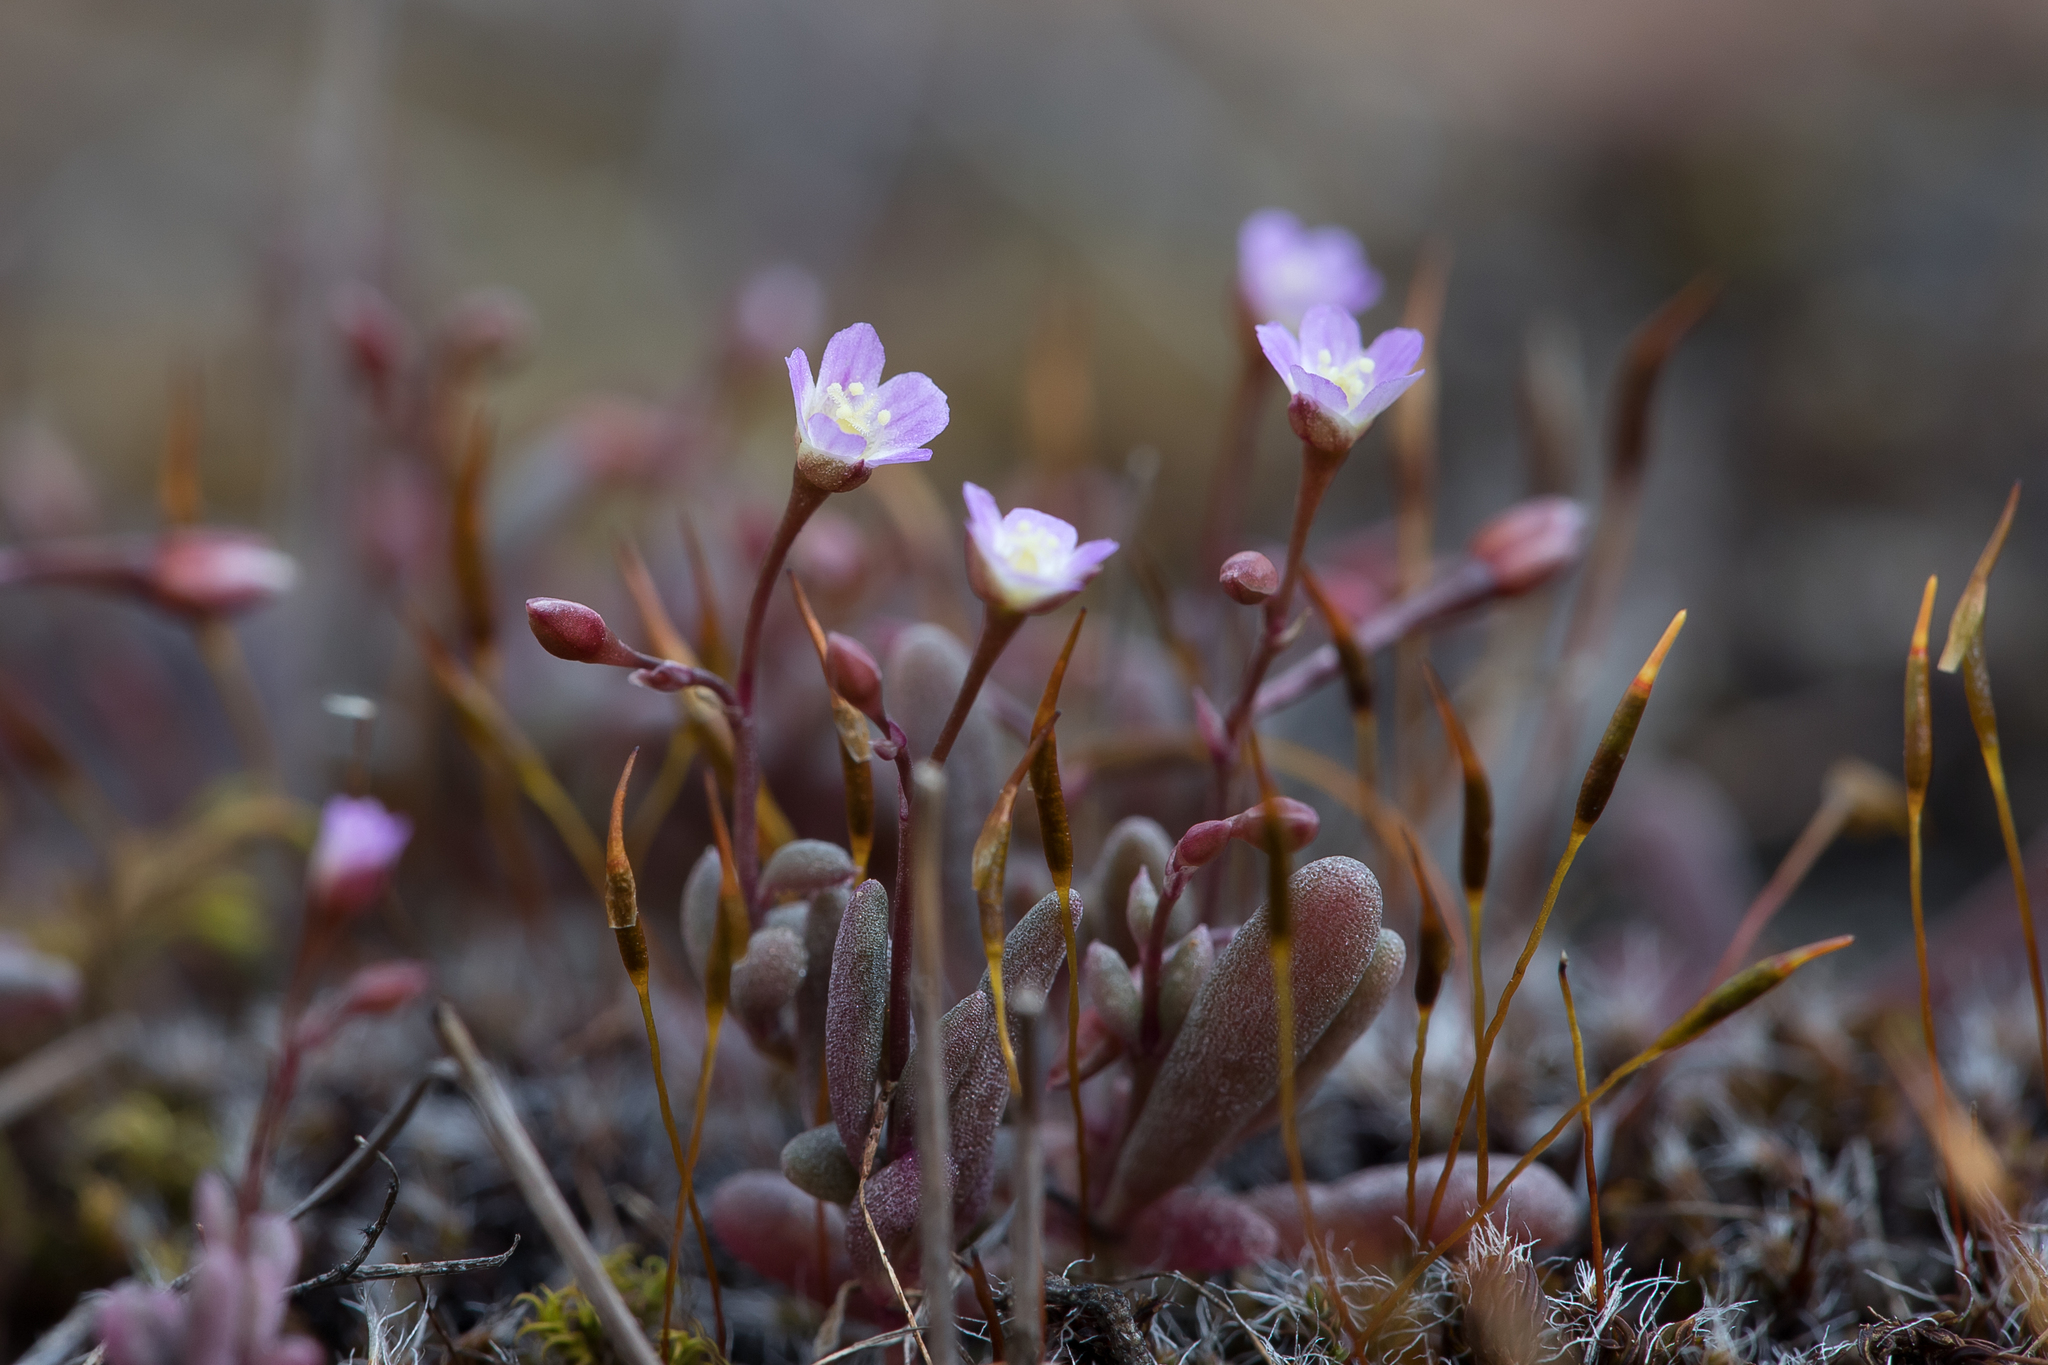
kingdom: Plantae
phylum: Tracheophyta
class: Magnoliopsida
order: Caryophyllales
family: Montiaceae
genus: Rumicastrum
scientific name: Rumicastrum eremaeum
